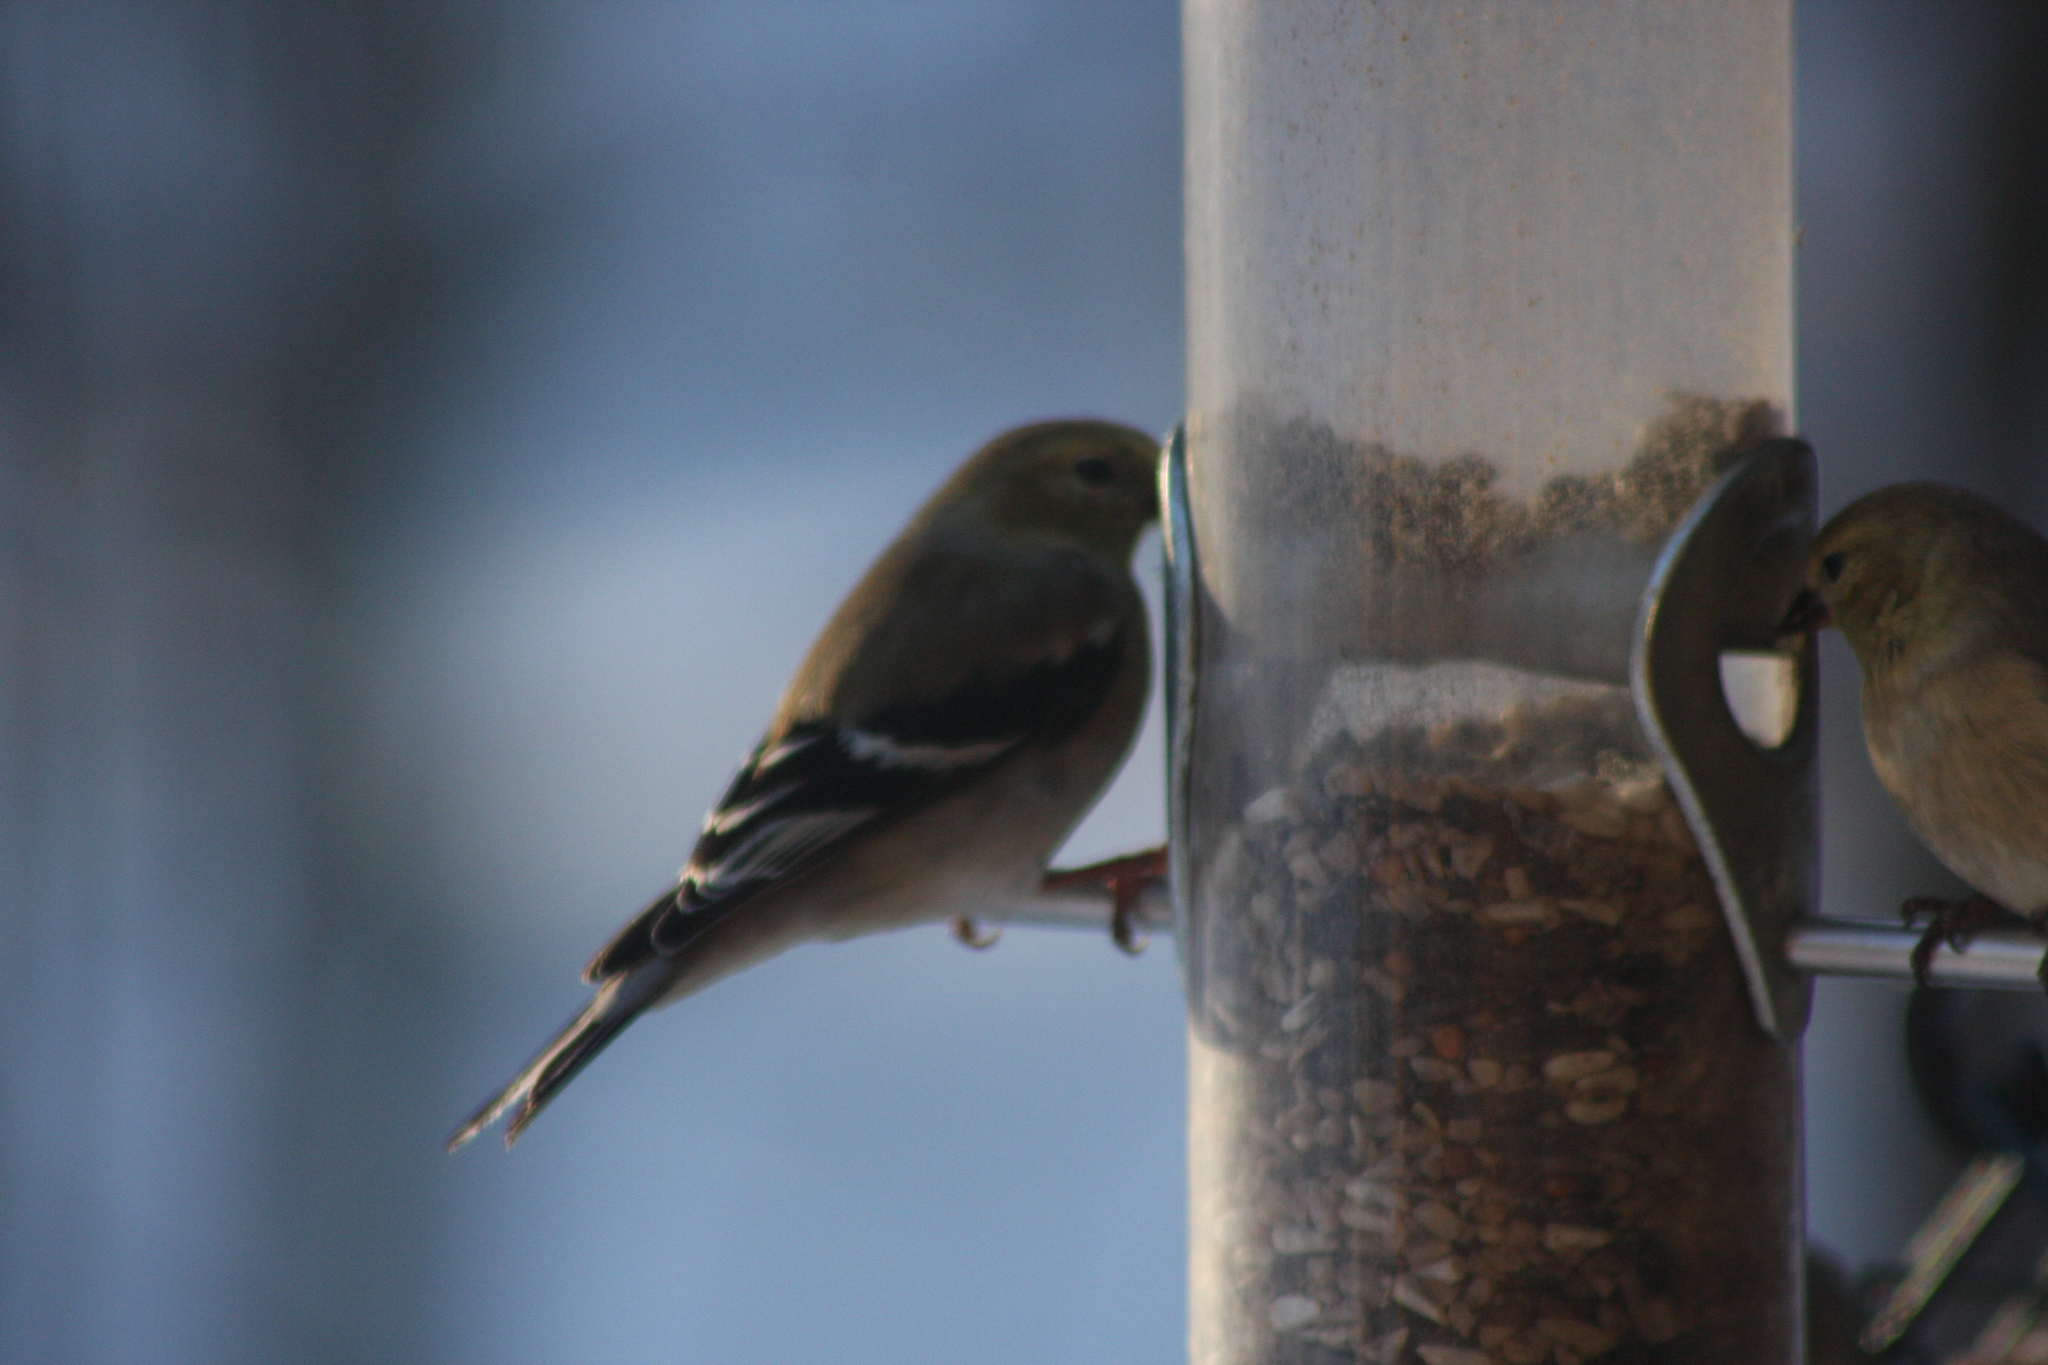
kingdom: Animalia
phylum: Chordata
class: Aves
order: Passeriformes
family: Fringillidae
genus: Spinus
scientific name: Spinus tristis
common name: American goldfinch
